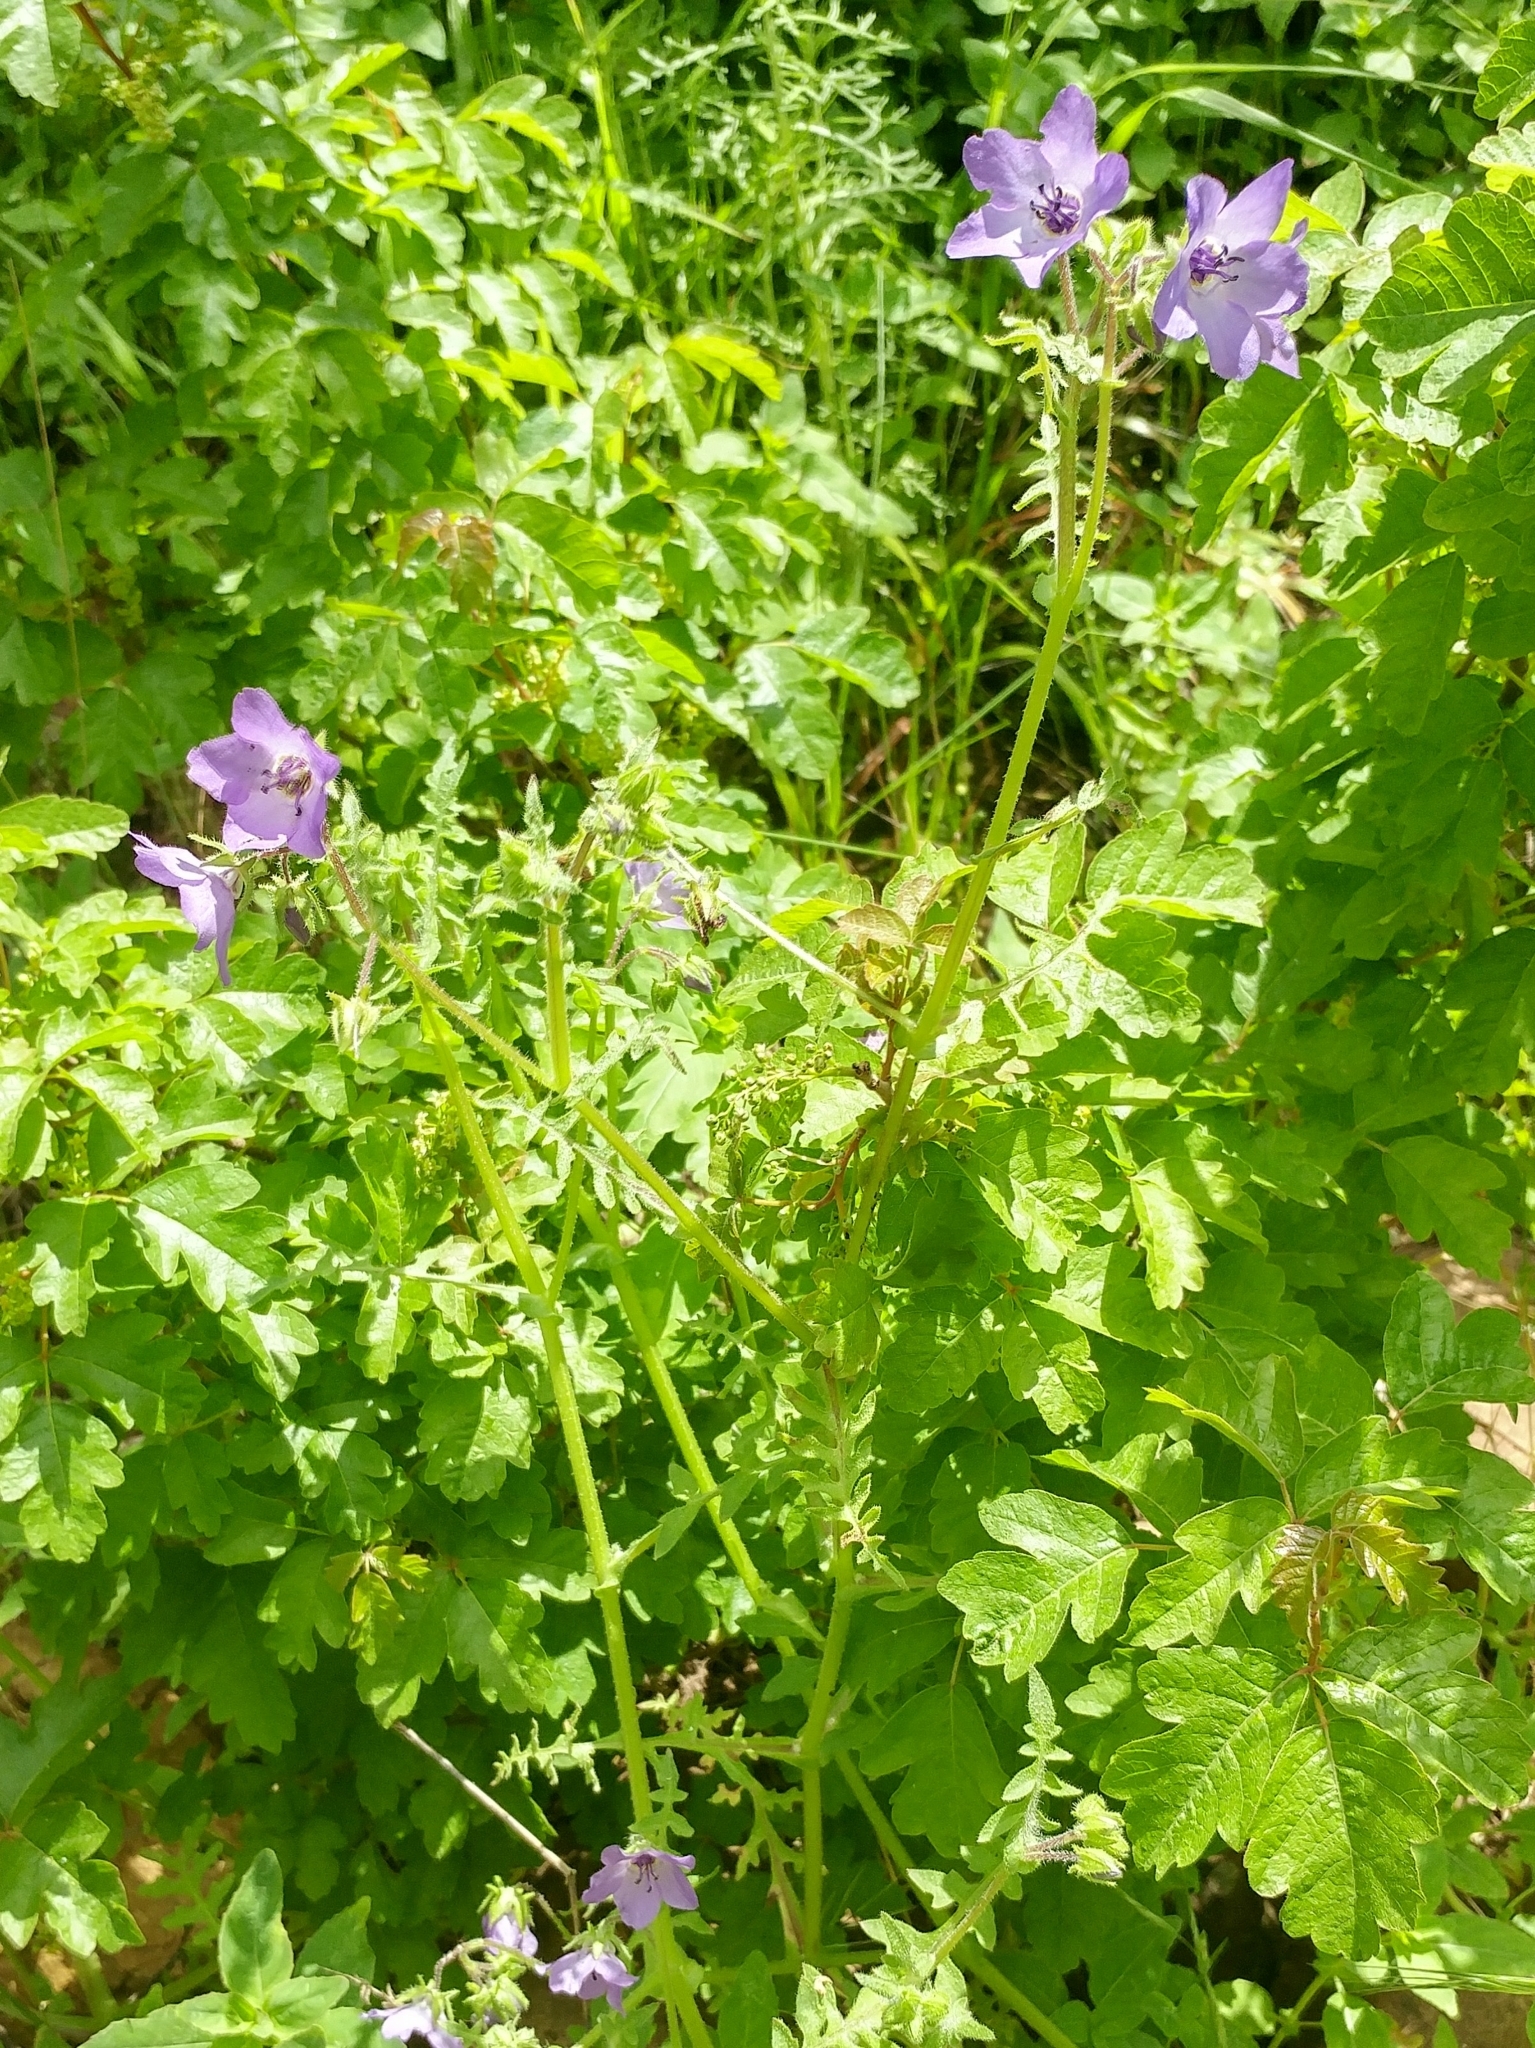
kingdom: Plantae
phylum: Tracheophyta
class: Magnoliopsida
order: Boraginales
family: Hydrophyllaceae
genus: Pholistoma
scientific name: Pholistoma auritum
